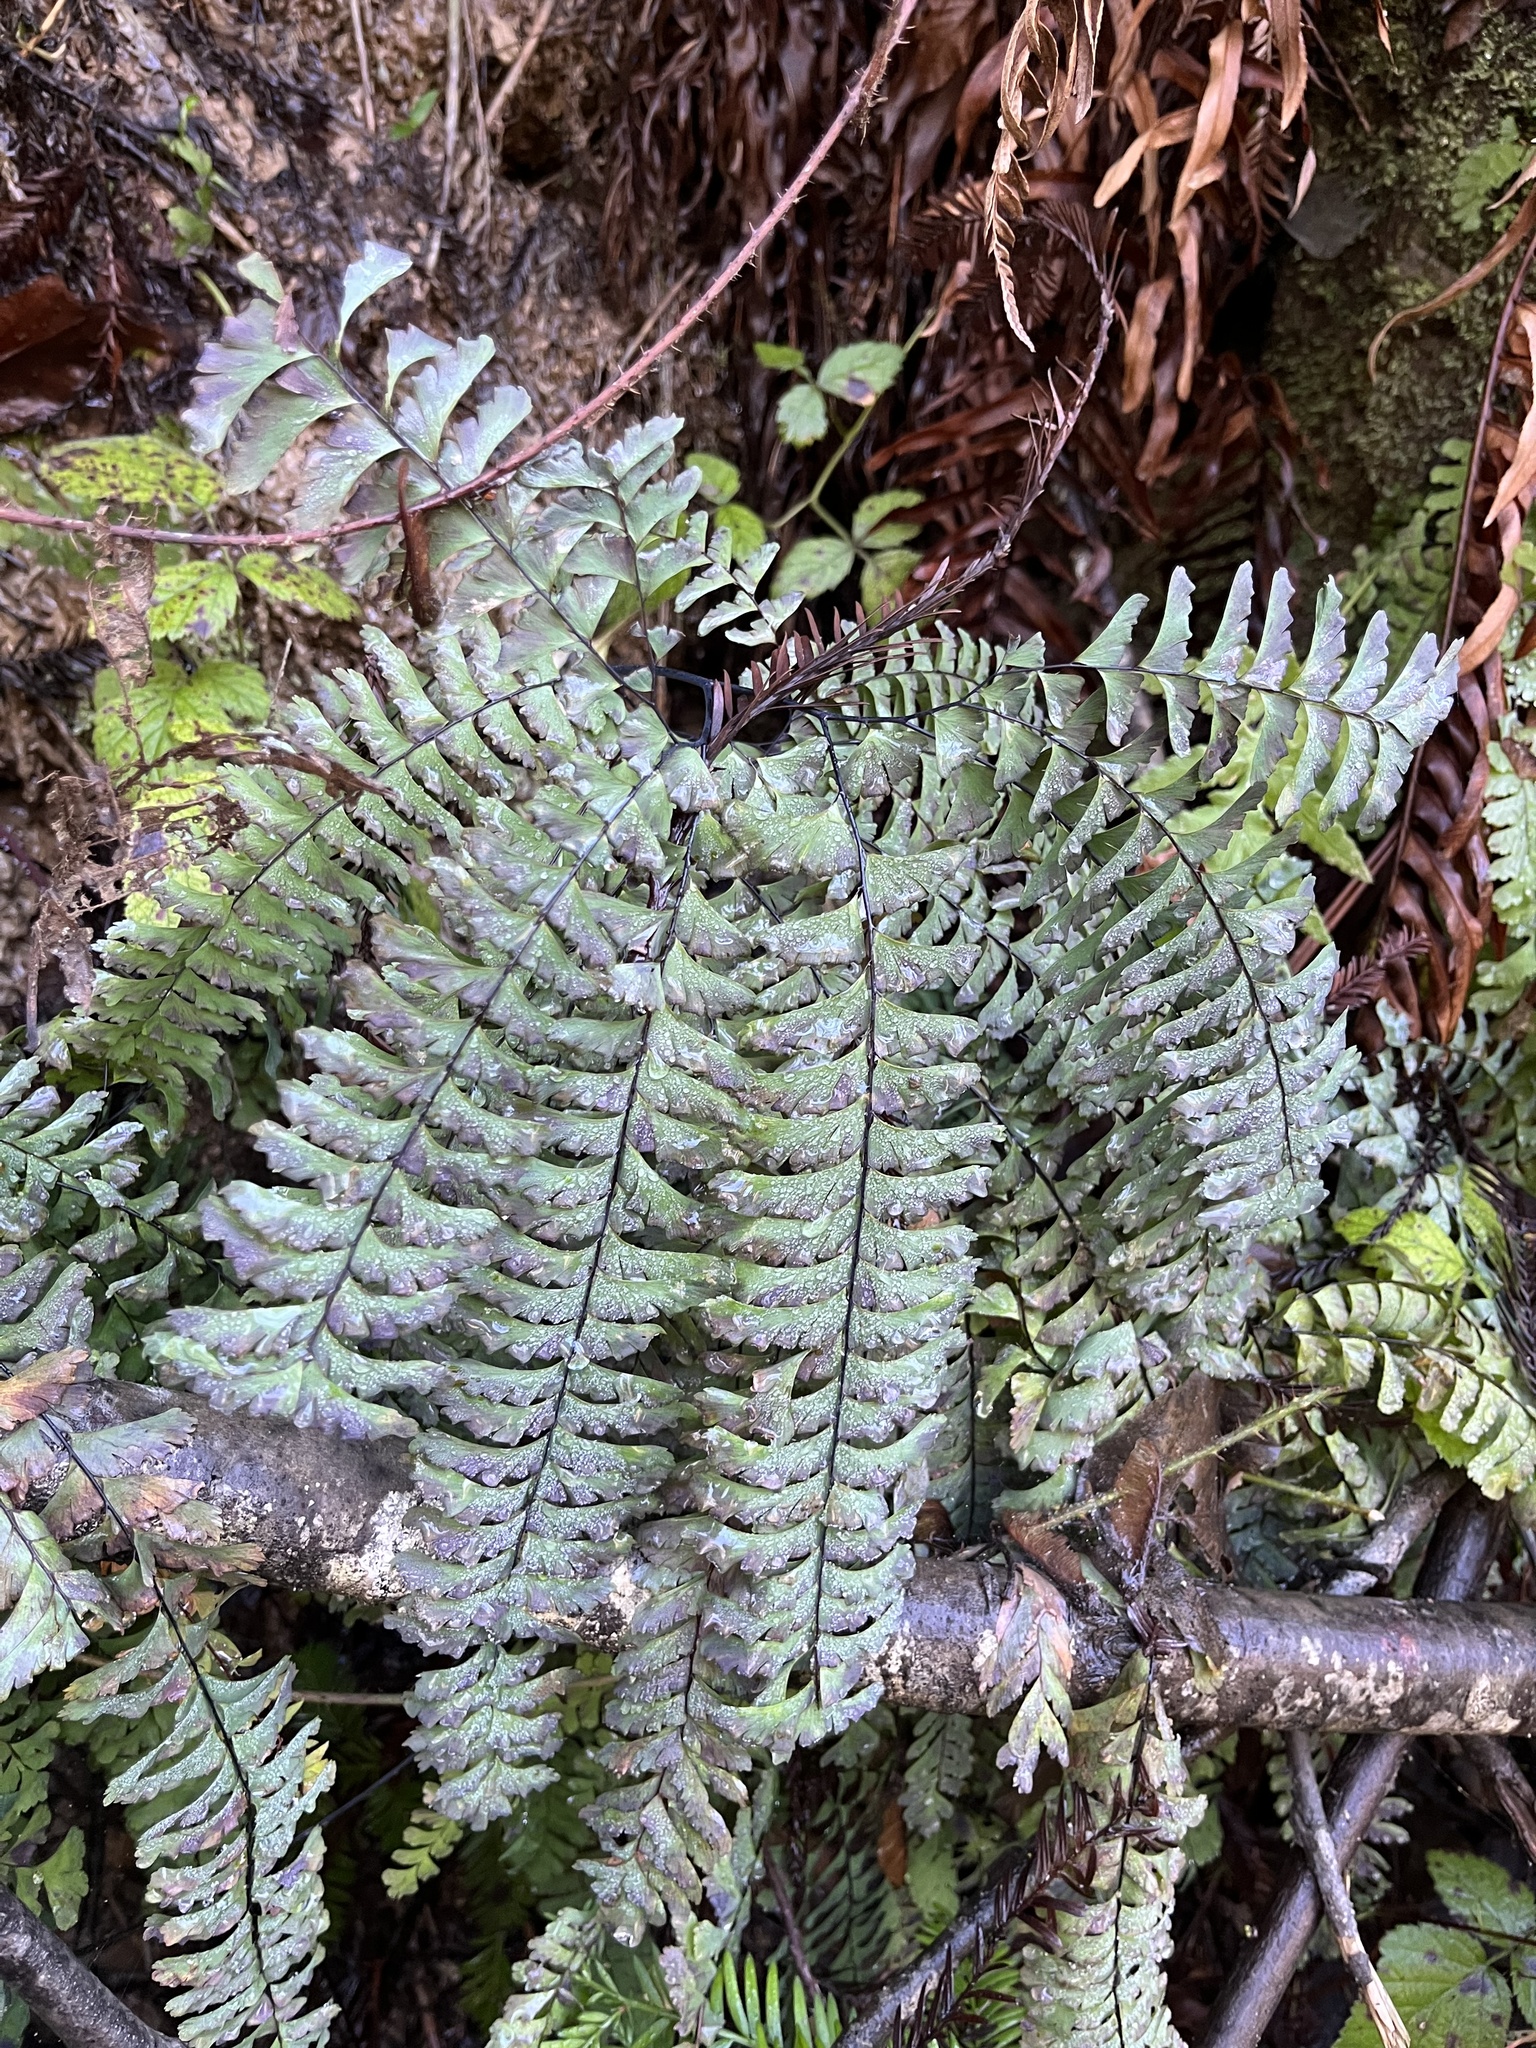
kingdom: Plantae
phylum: Tracheophyta
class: Polypodiopsida
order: Polypodiales
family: Pteridaceae
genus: Adiantum
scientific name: Adiantum aleuticum
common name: Aleutian maidenhair fern
